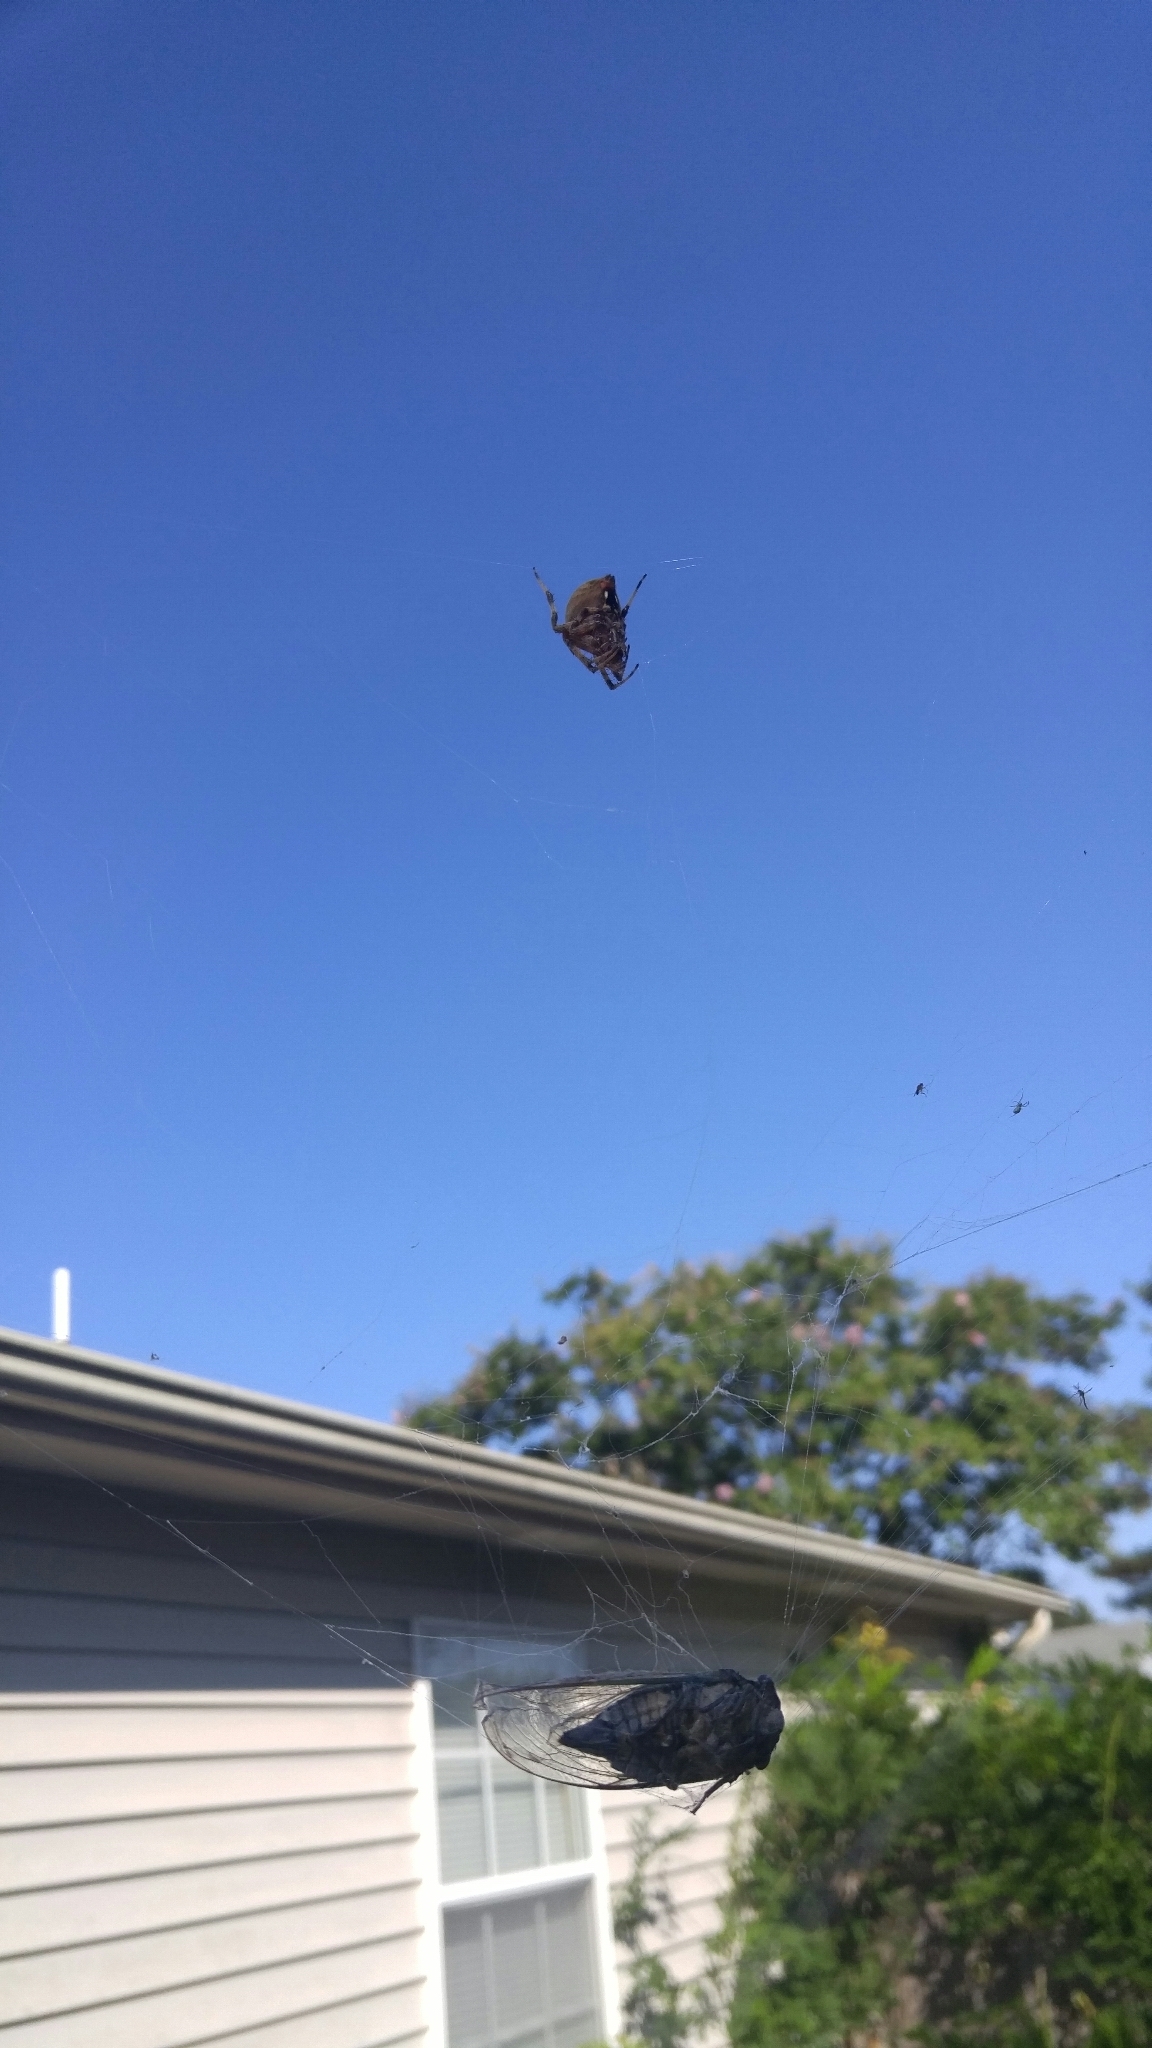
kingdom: Animalia
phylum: Arthropoda
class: Arachnida
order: Araneae
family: Araneidae
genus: Neoscona
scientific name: Neoscona crucifera
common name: Spotted orbweaver
